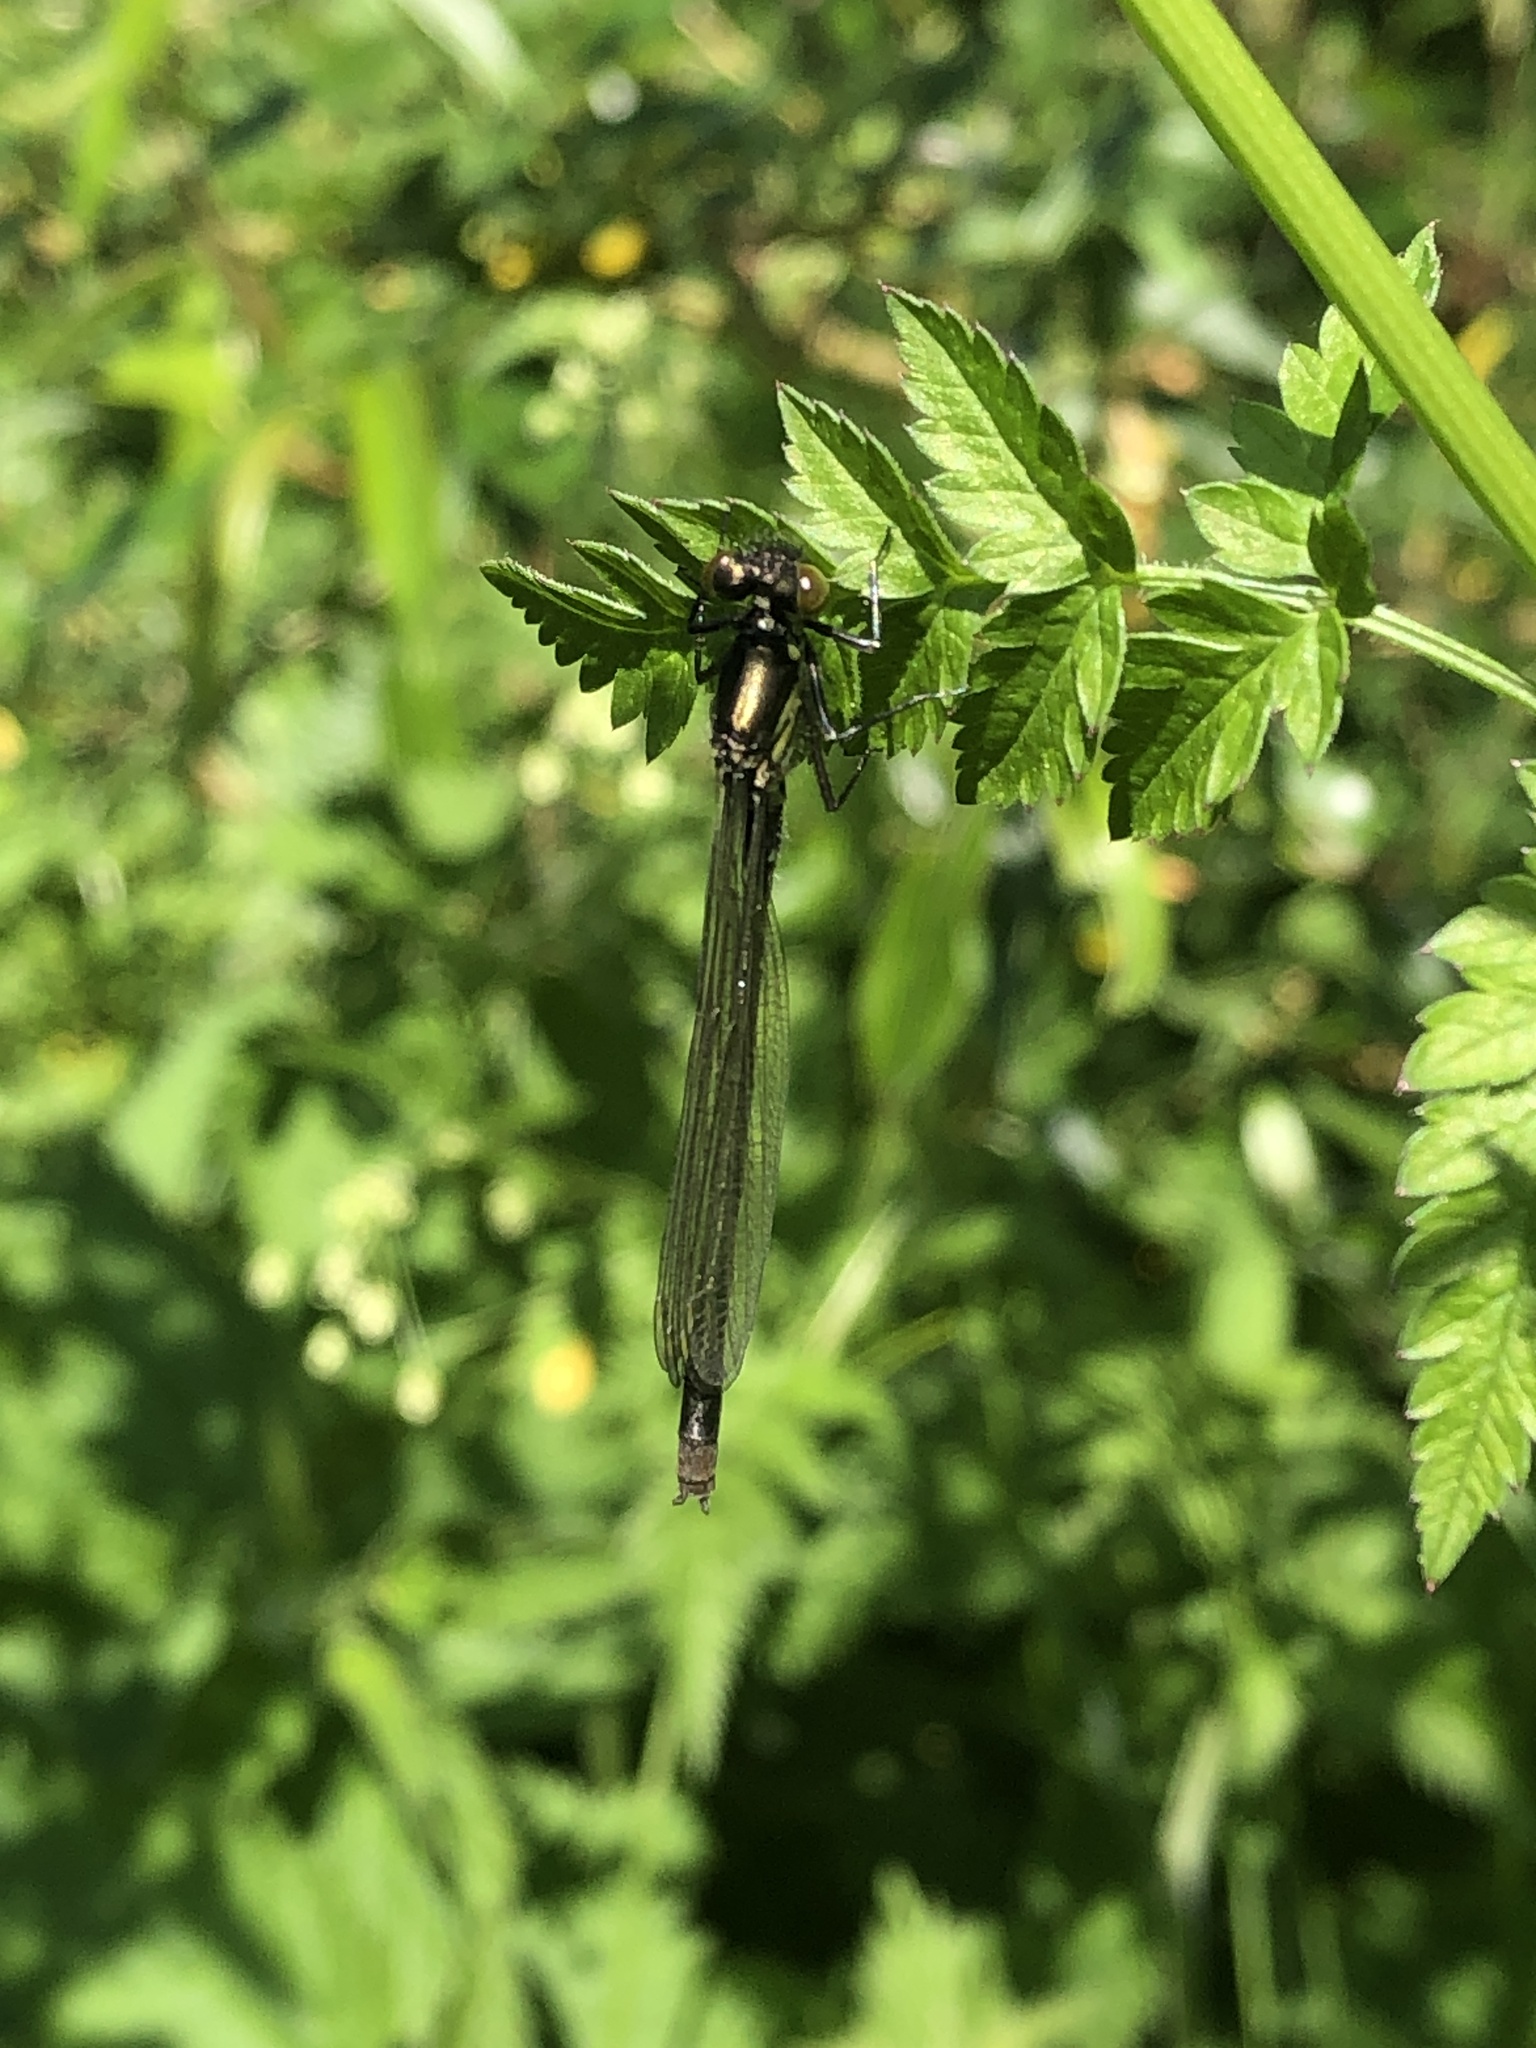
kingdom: Animalia
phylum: Arthropoda
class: Insecta
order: Odonata
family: Coenagrionidae
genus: Erythromma
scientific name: Erythromma najas
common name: Red-eyed damselfly
